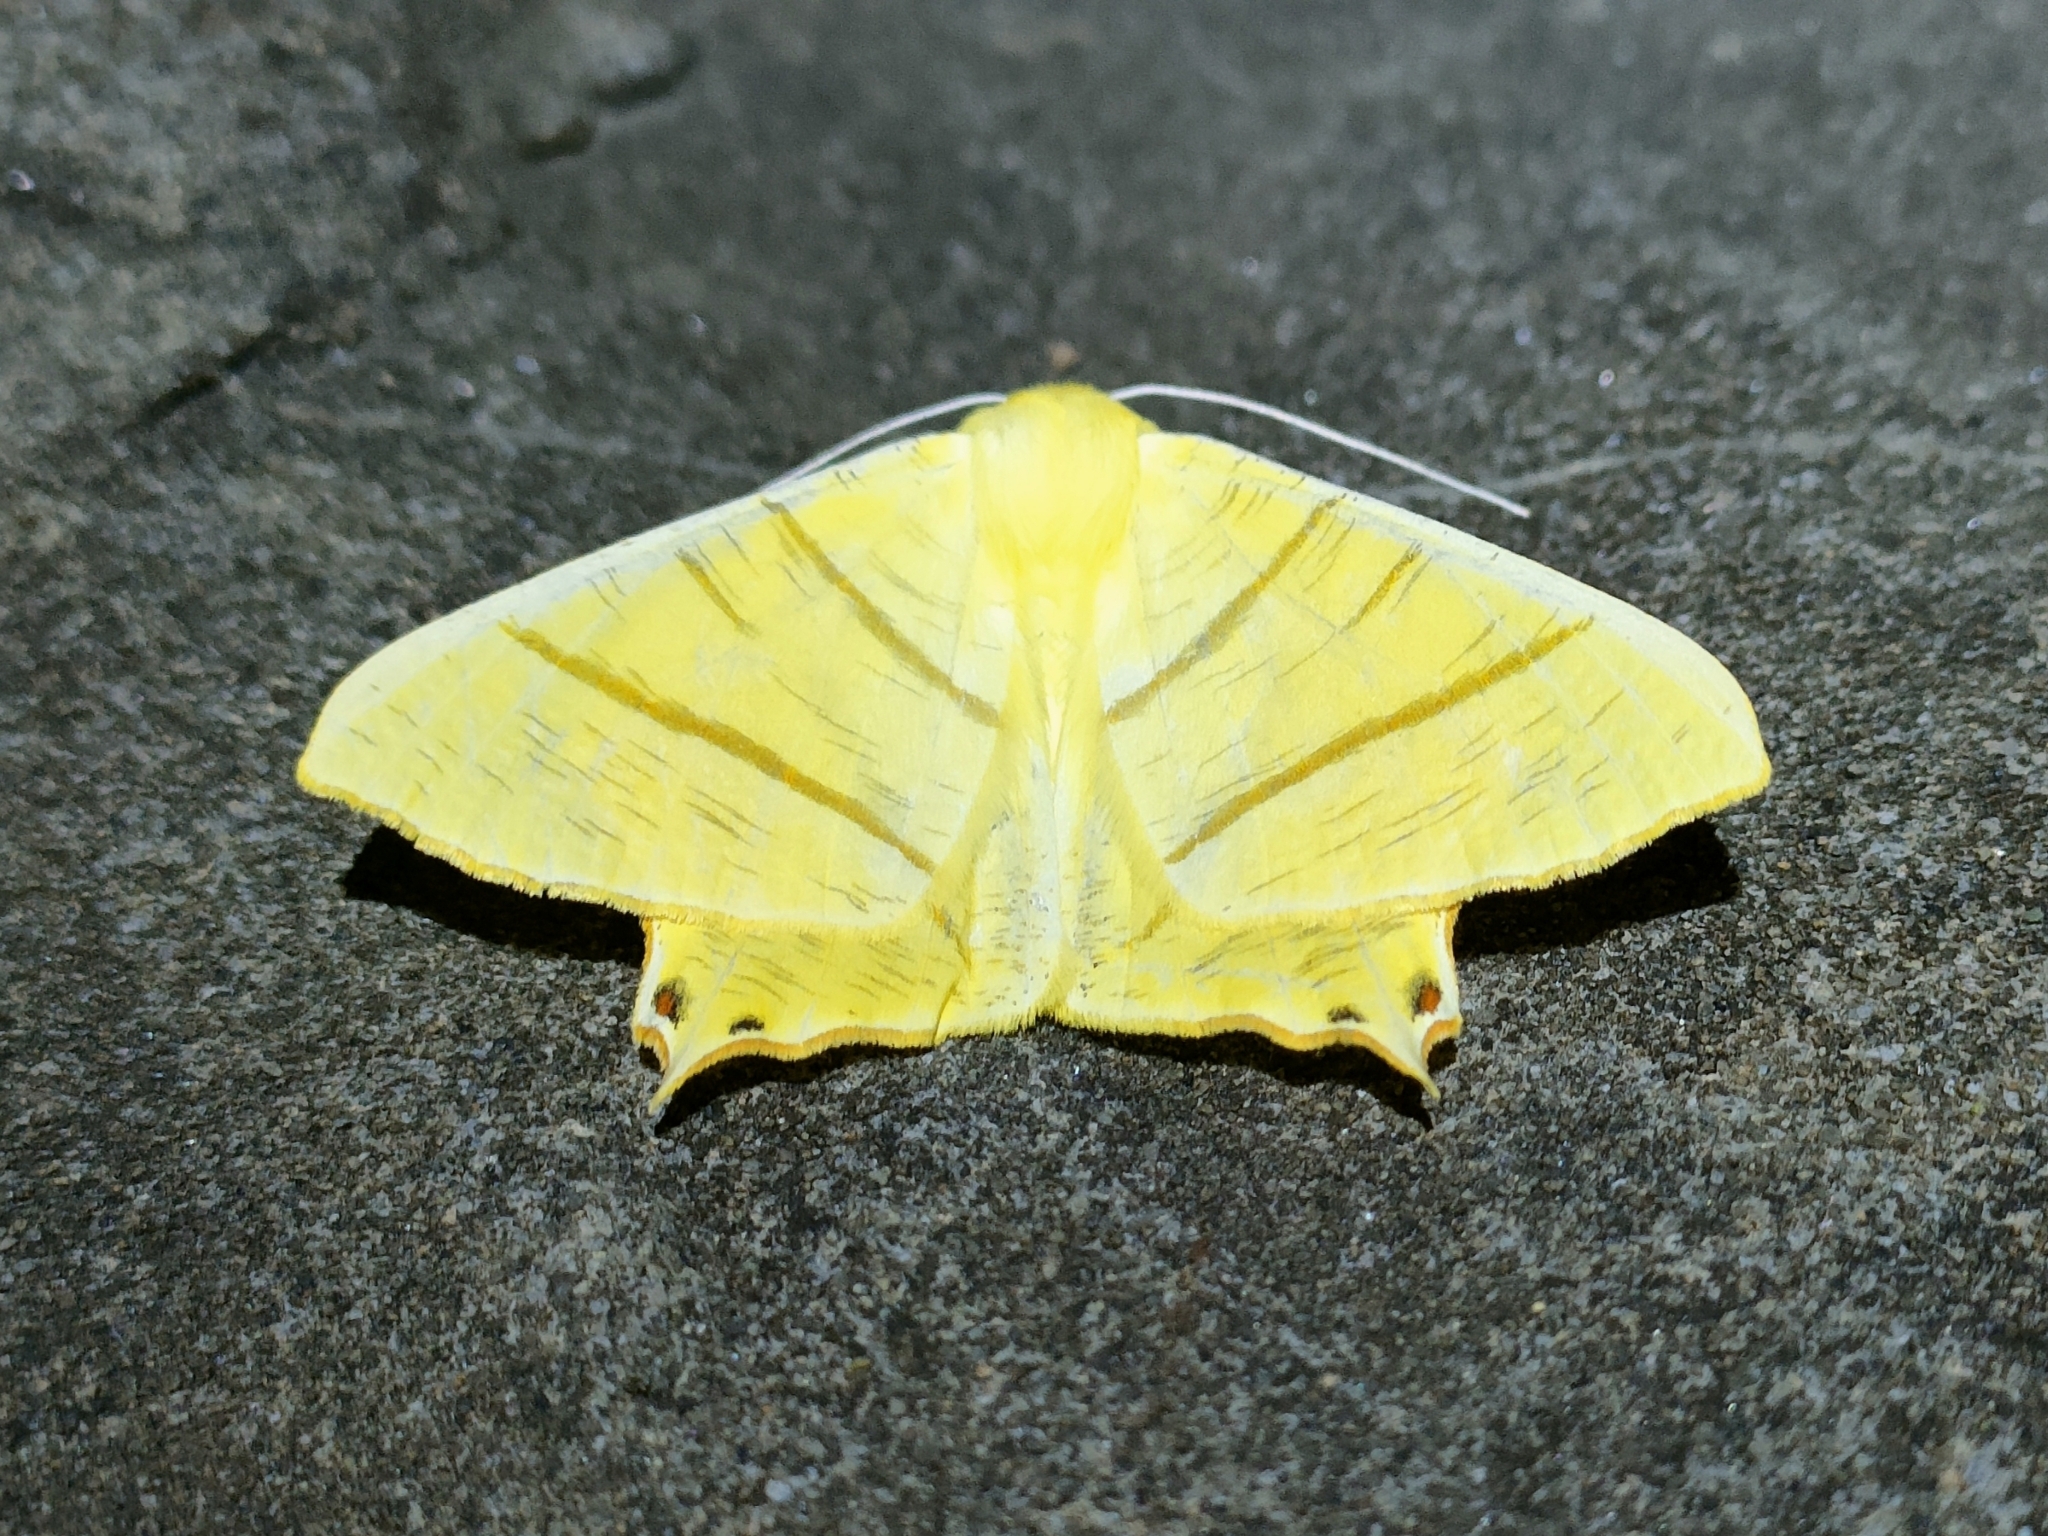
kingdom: Animalia
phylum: Arthropoda
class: Insecta
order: Lepidoptera
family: Geometridae
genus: Ourapteryx
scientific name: Ourapteryx sambucaria
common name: Swallow-tailed moth
